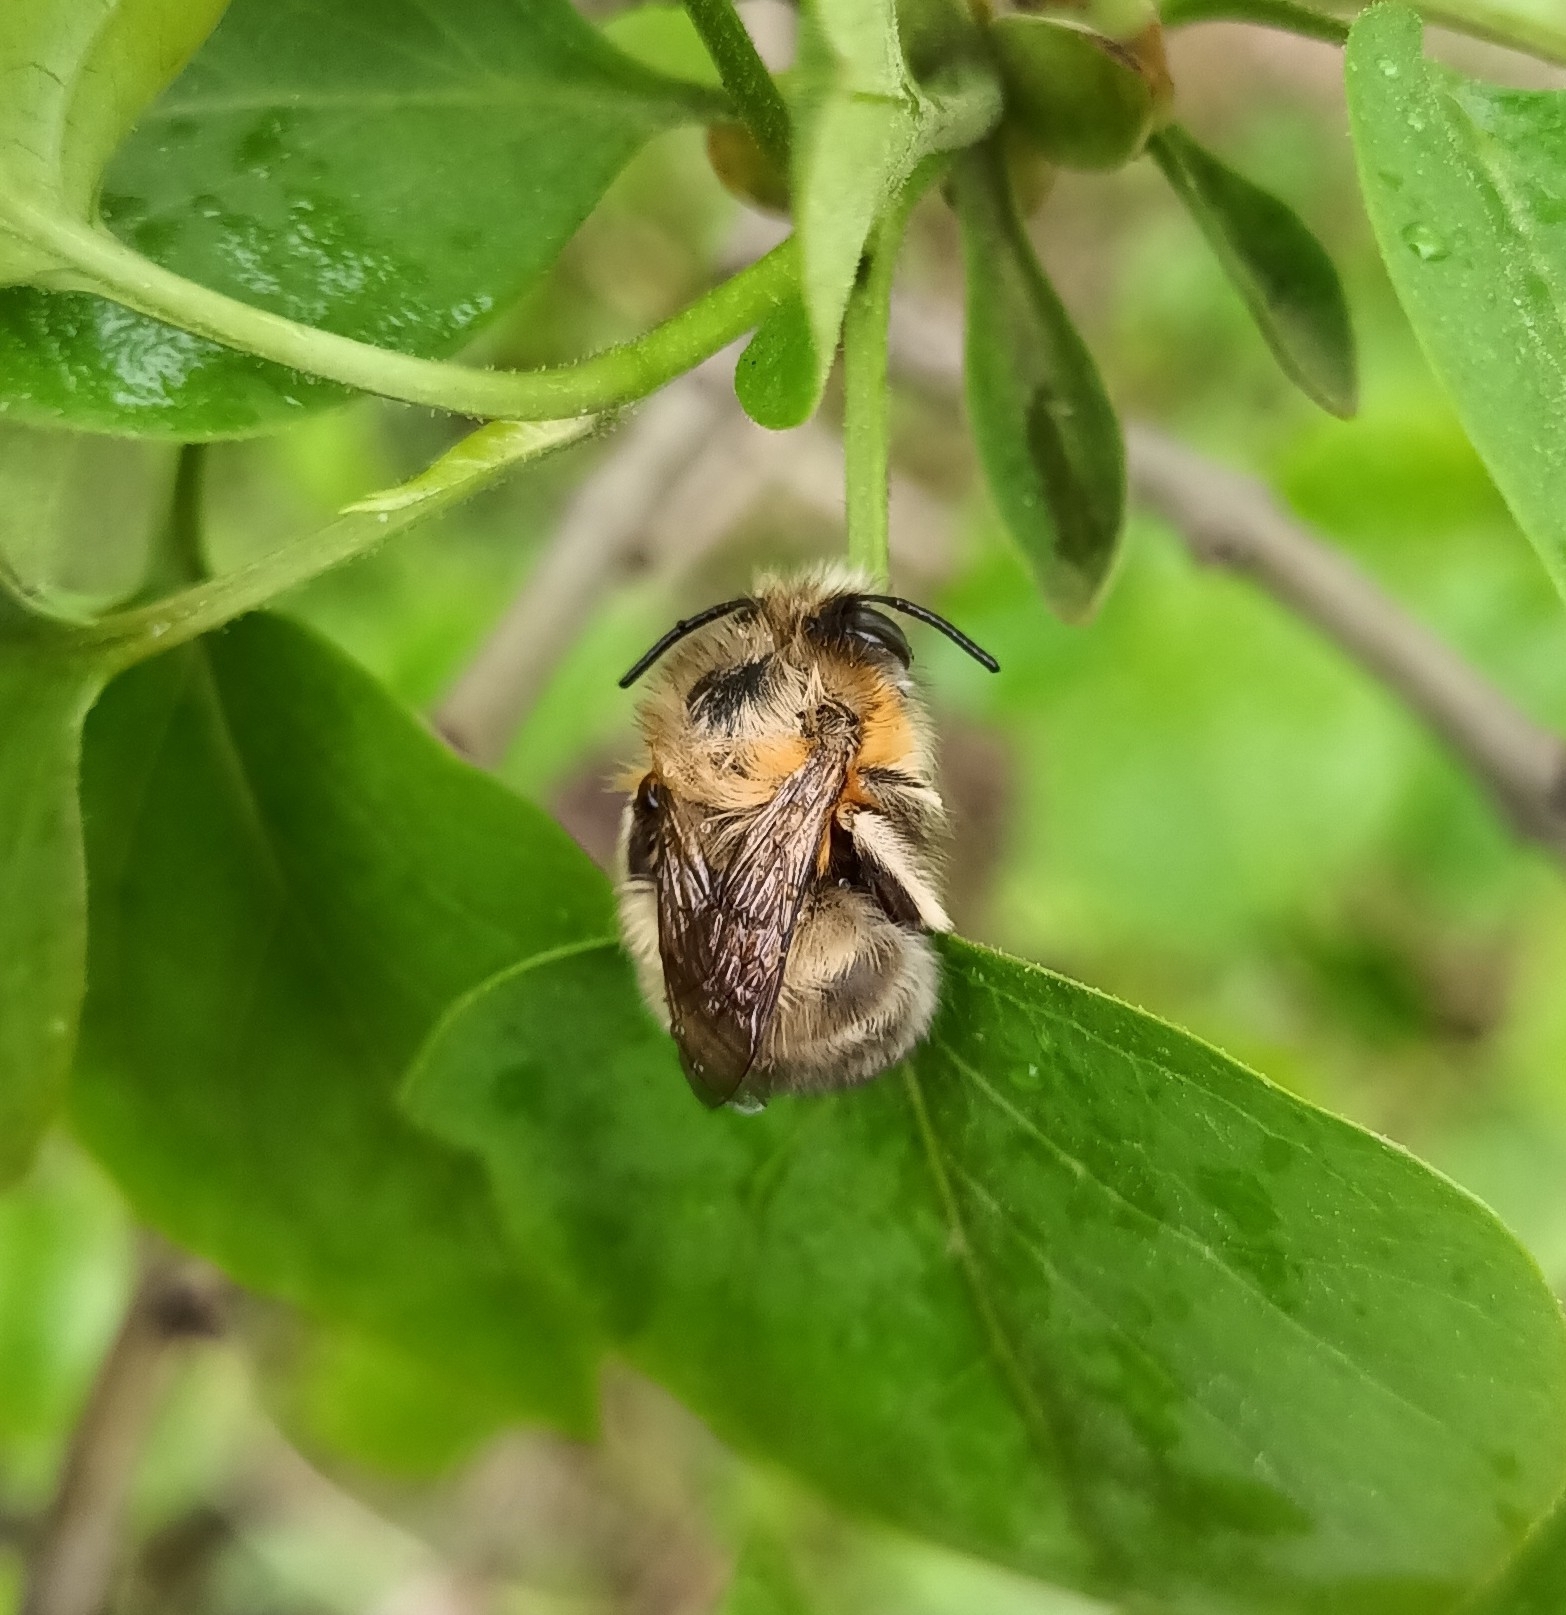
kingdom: Animalia
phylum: Arthropoda
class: Insecta
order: Hymenoptera
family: Apidae
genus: Anthophora
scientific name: Anthophora plumipes
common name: Hairy-footed flower bee
